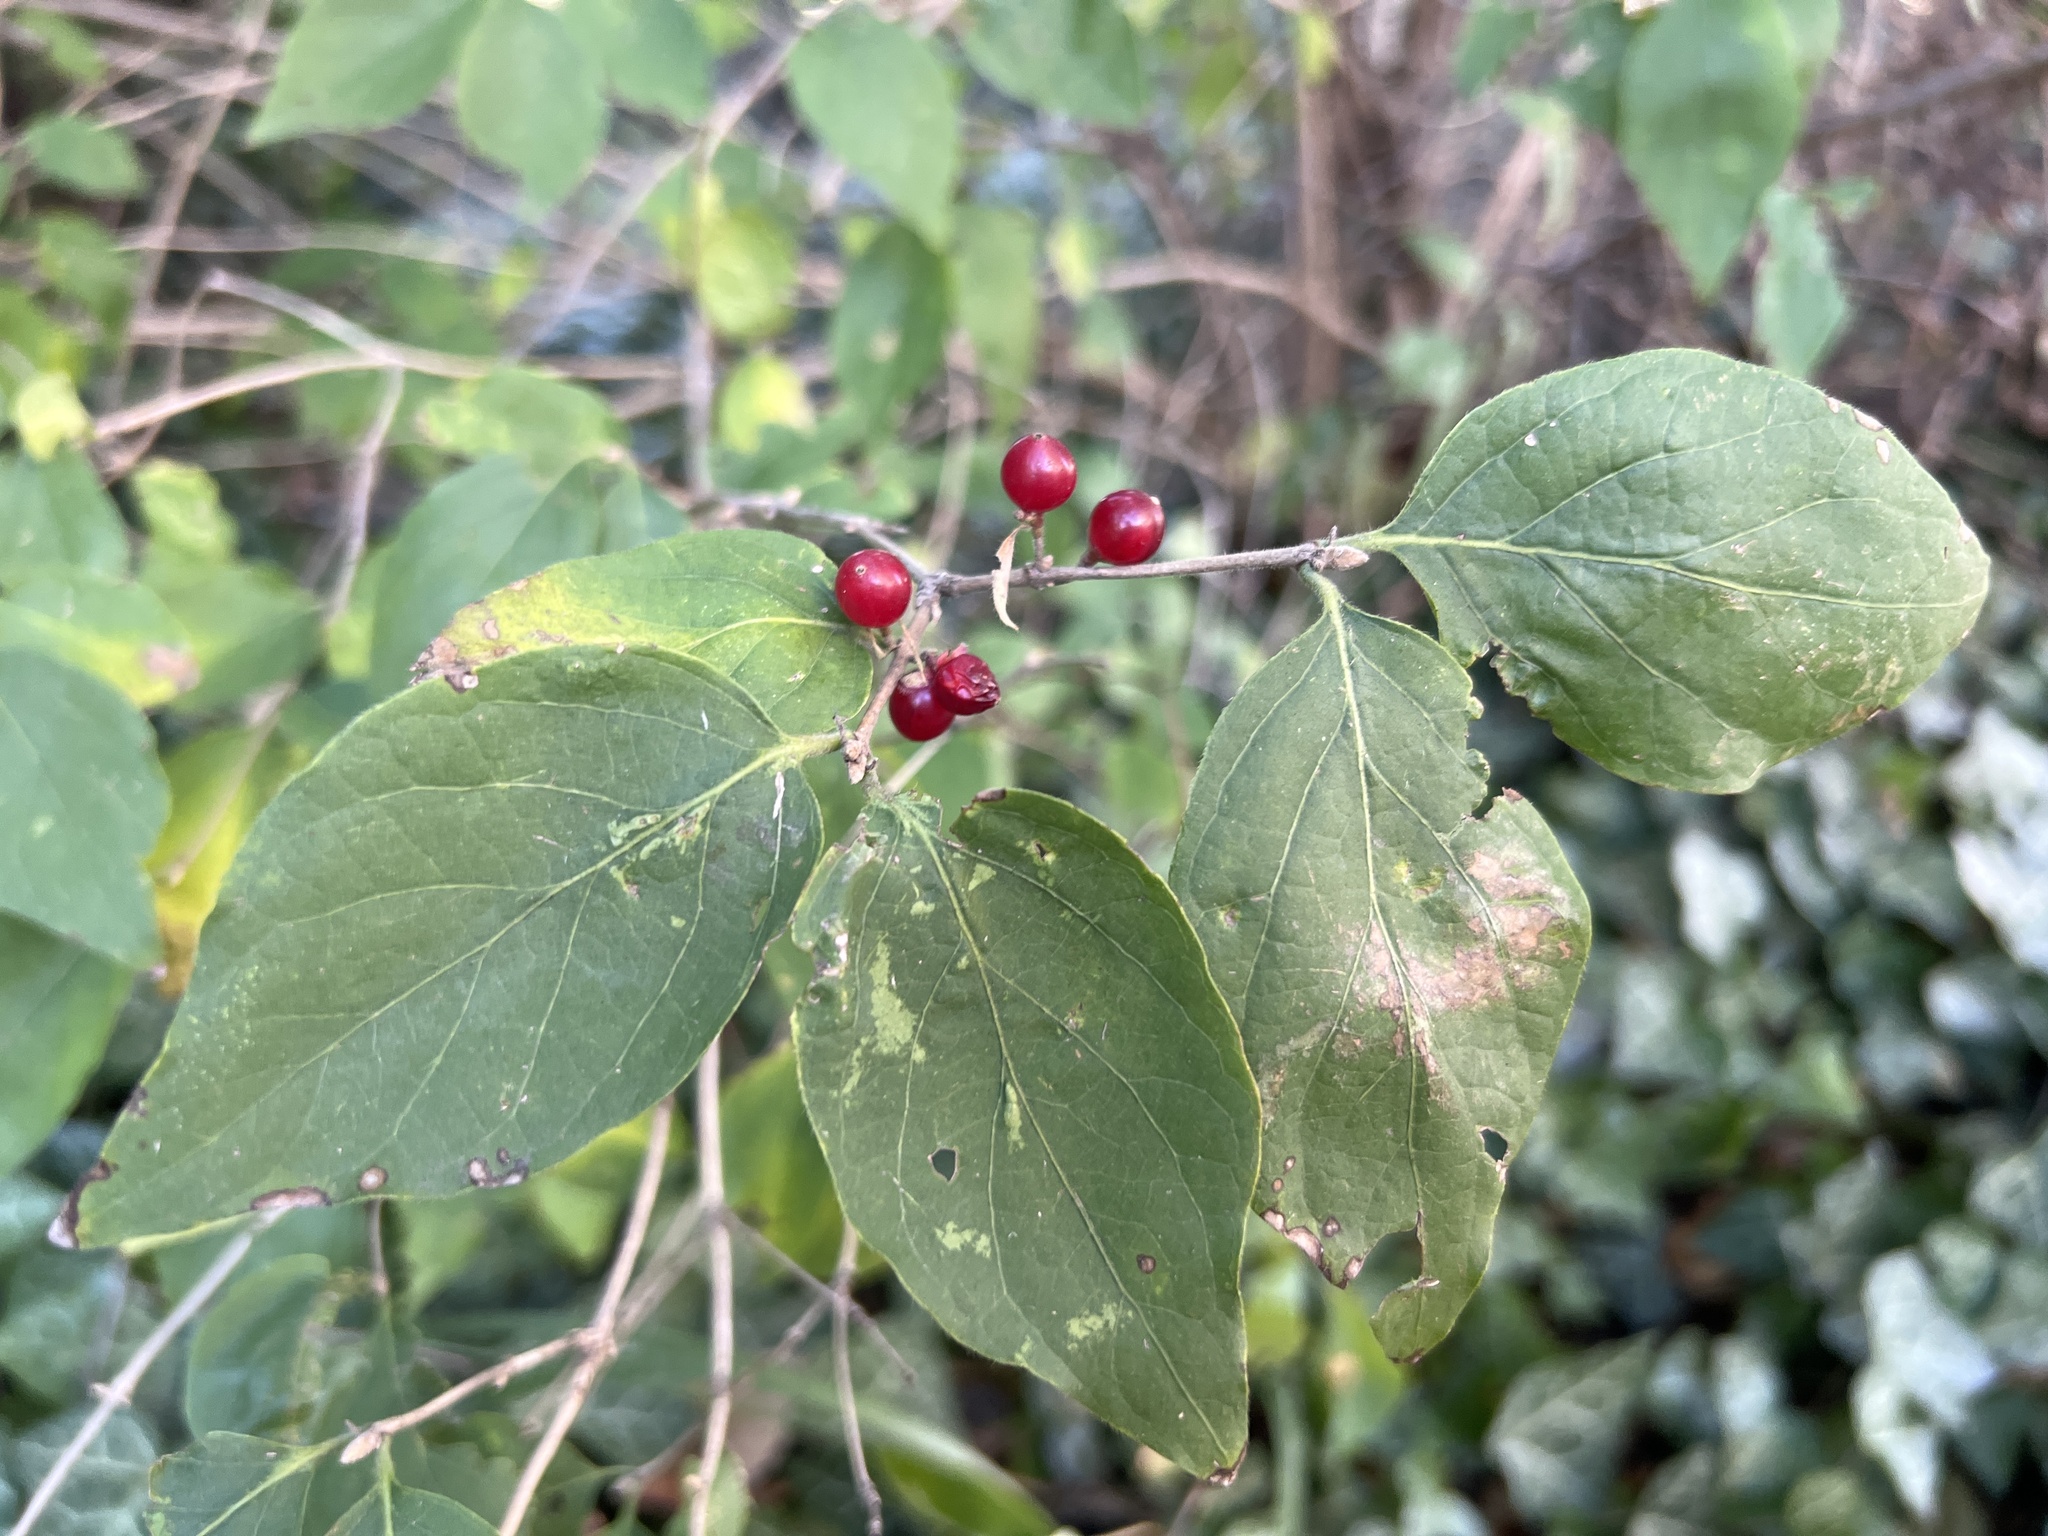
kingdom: Plantae
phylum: Tracheophyta
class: Magnoliopsida
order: Dipsacales
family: Caprifoliaceae
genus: Lonicera
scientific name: Lonicera maackii
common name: Amur honeysuckle
